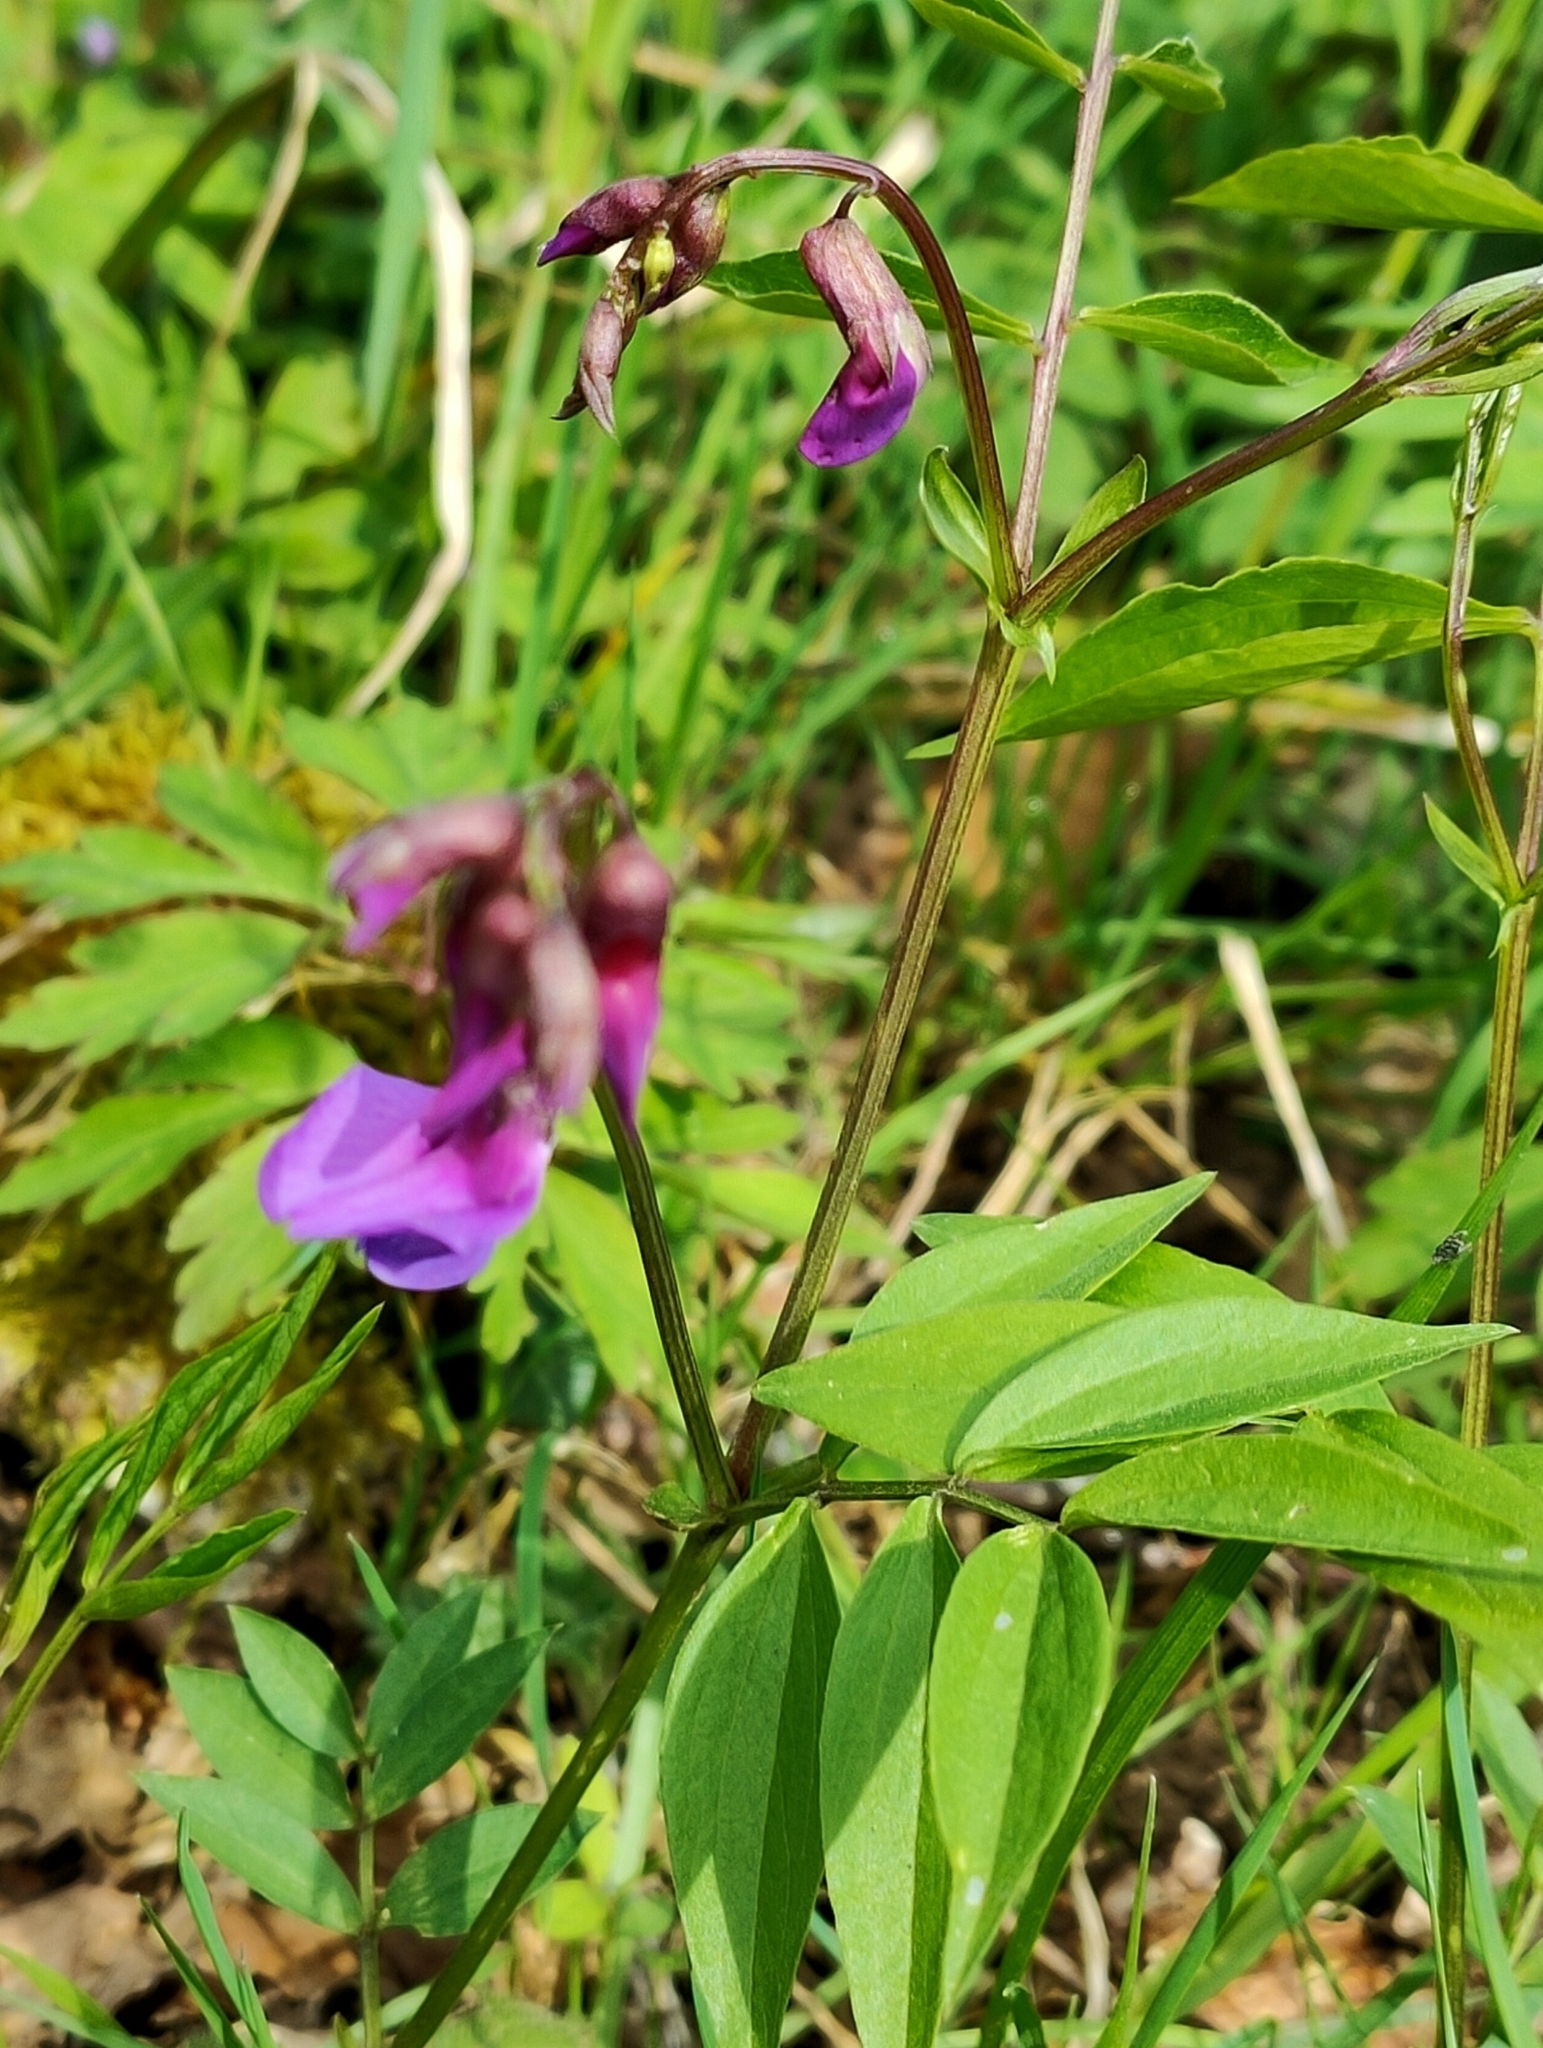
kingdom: Plantae
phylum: Tracheophyta
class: Magnoliopsida
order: Fabales
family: Fabaceae
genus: Lathyrus
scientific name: Lathyrus vernus
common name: Spring pea
